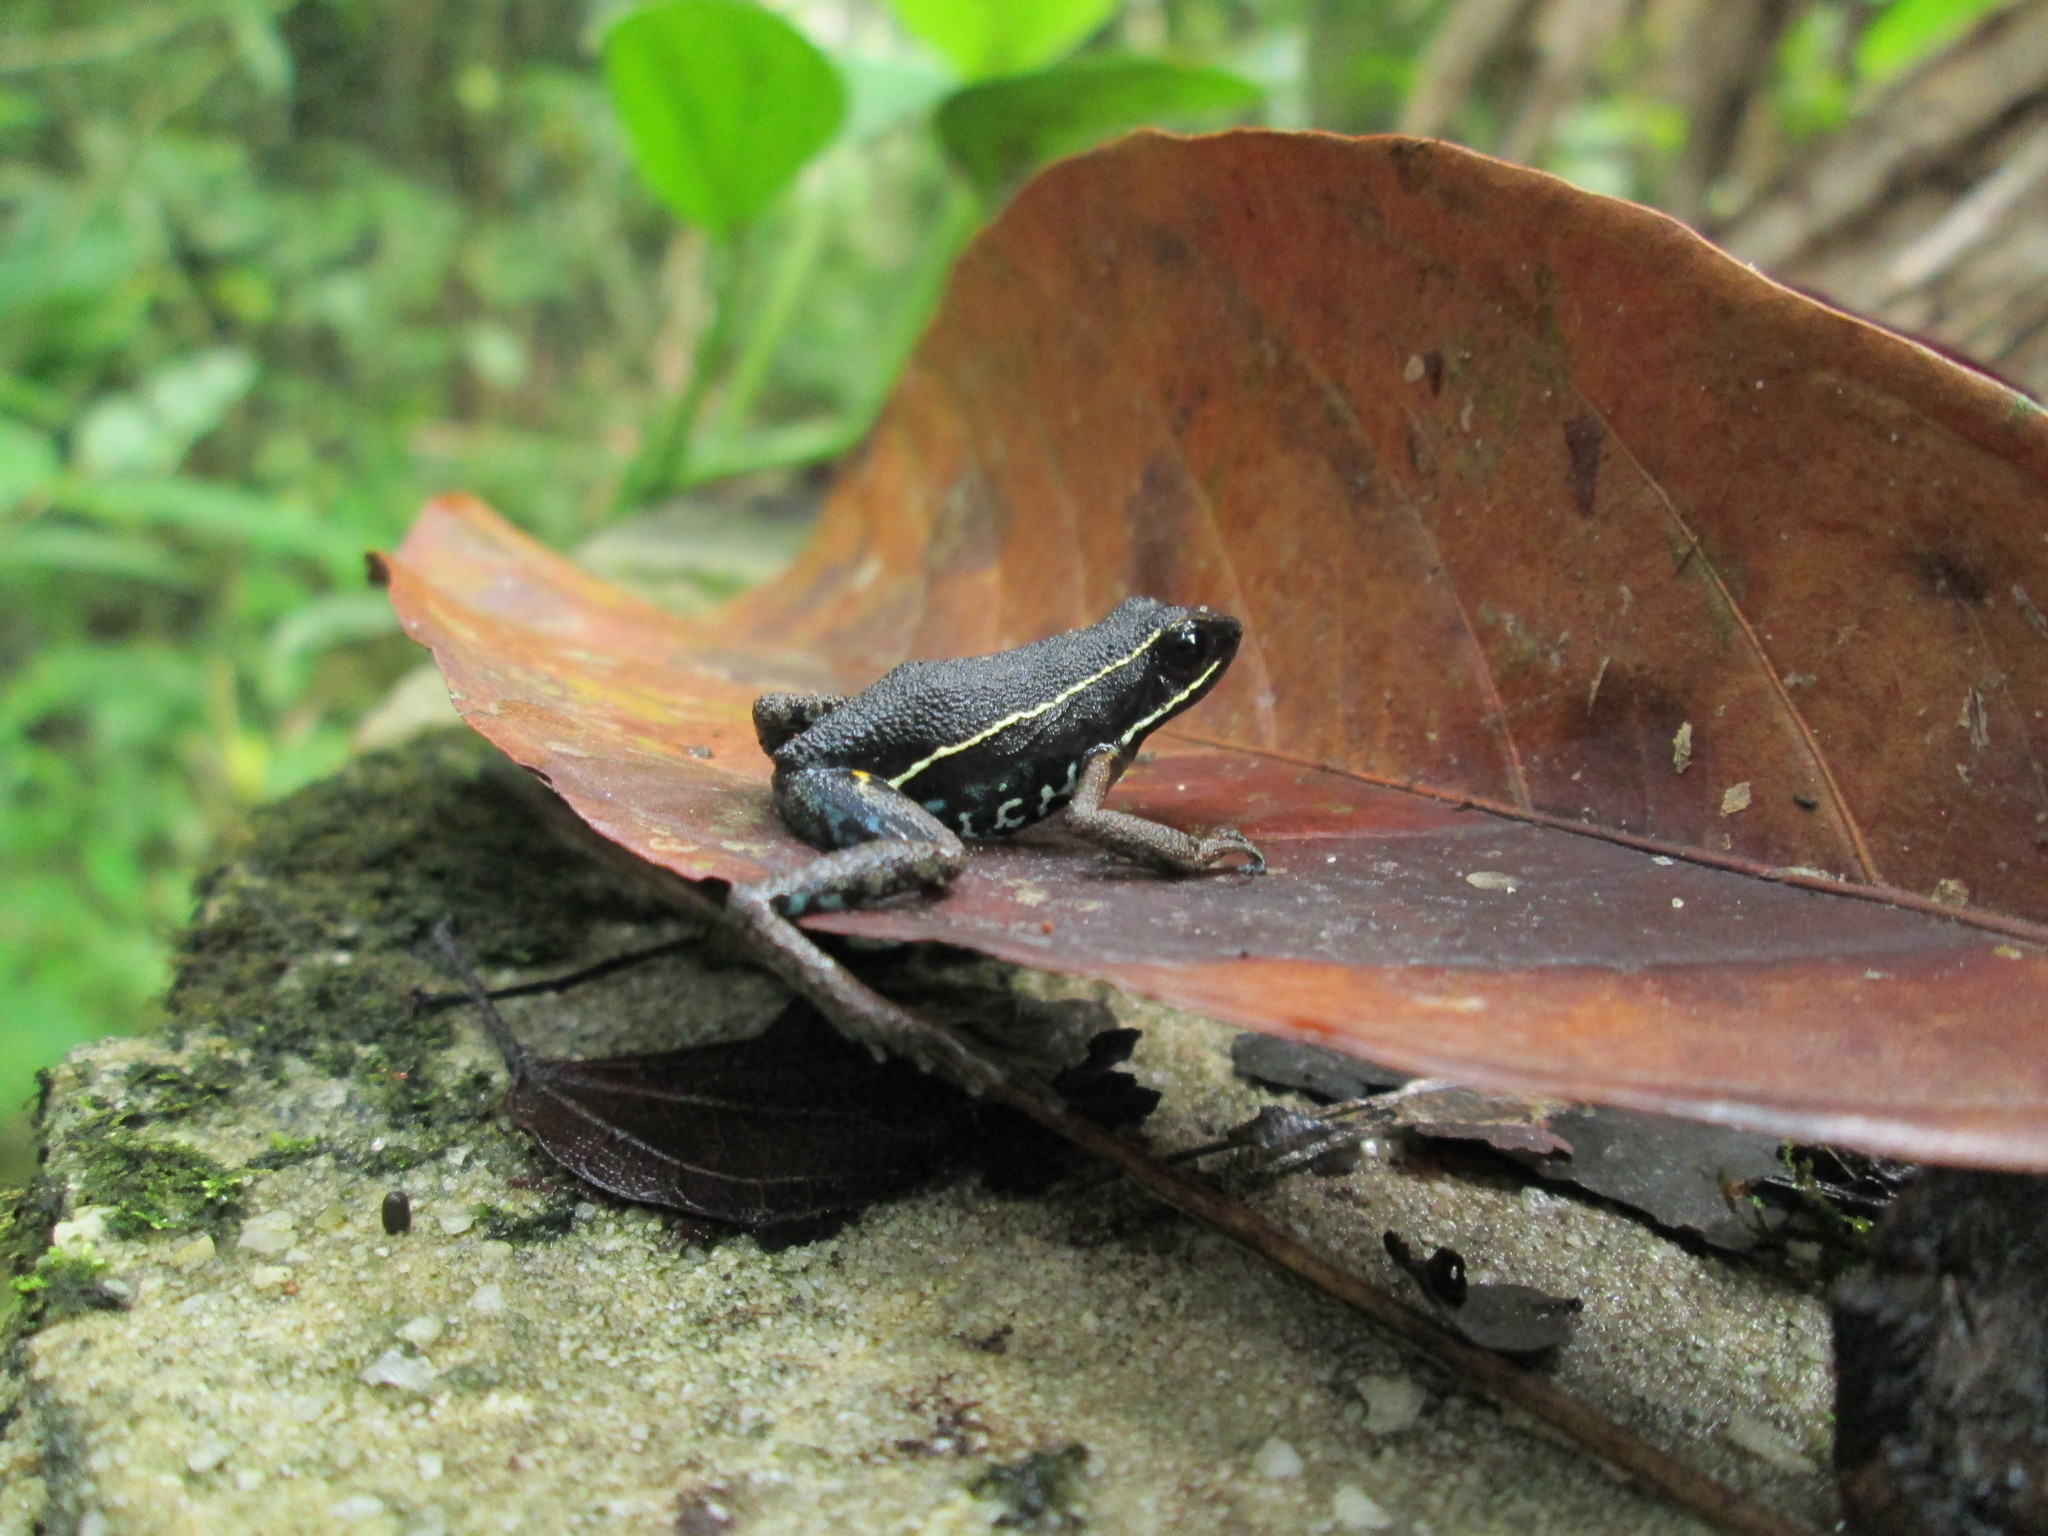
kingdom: Animalia
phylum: Chordata
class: Amphibia
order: Anura
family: Dendrobatidae
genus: Ameerega
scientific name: Ameerega hahneli
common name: Yurimaguas pioson frog
